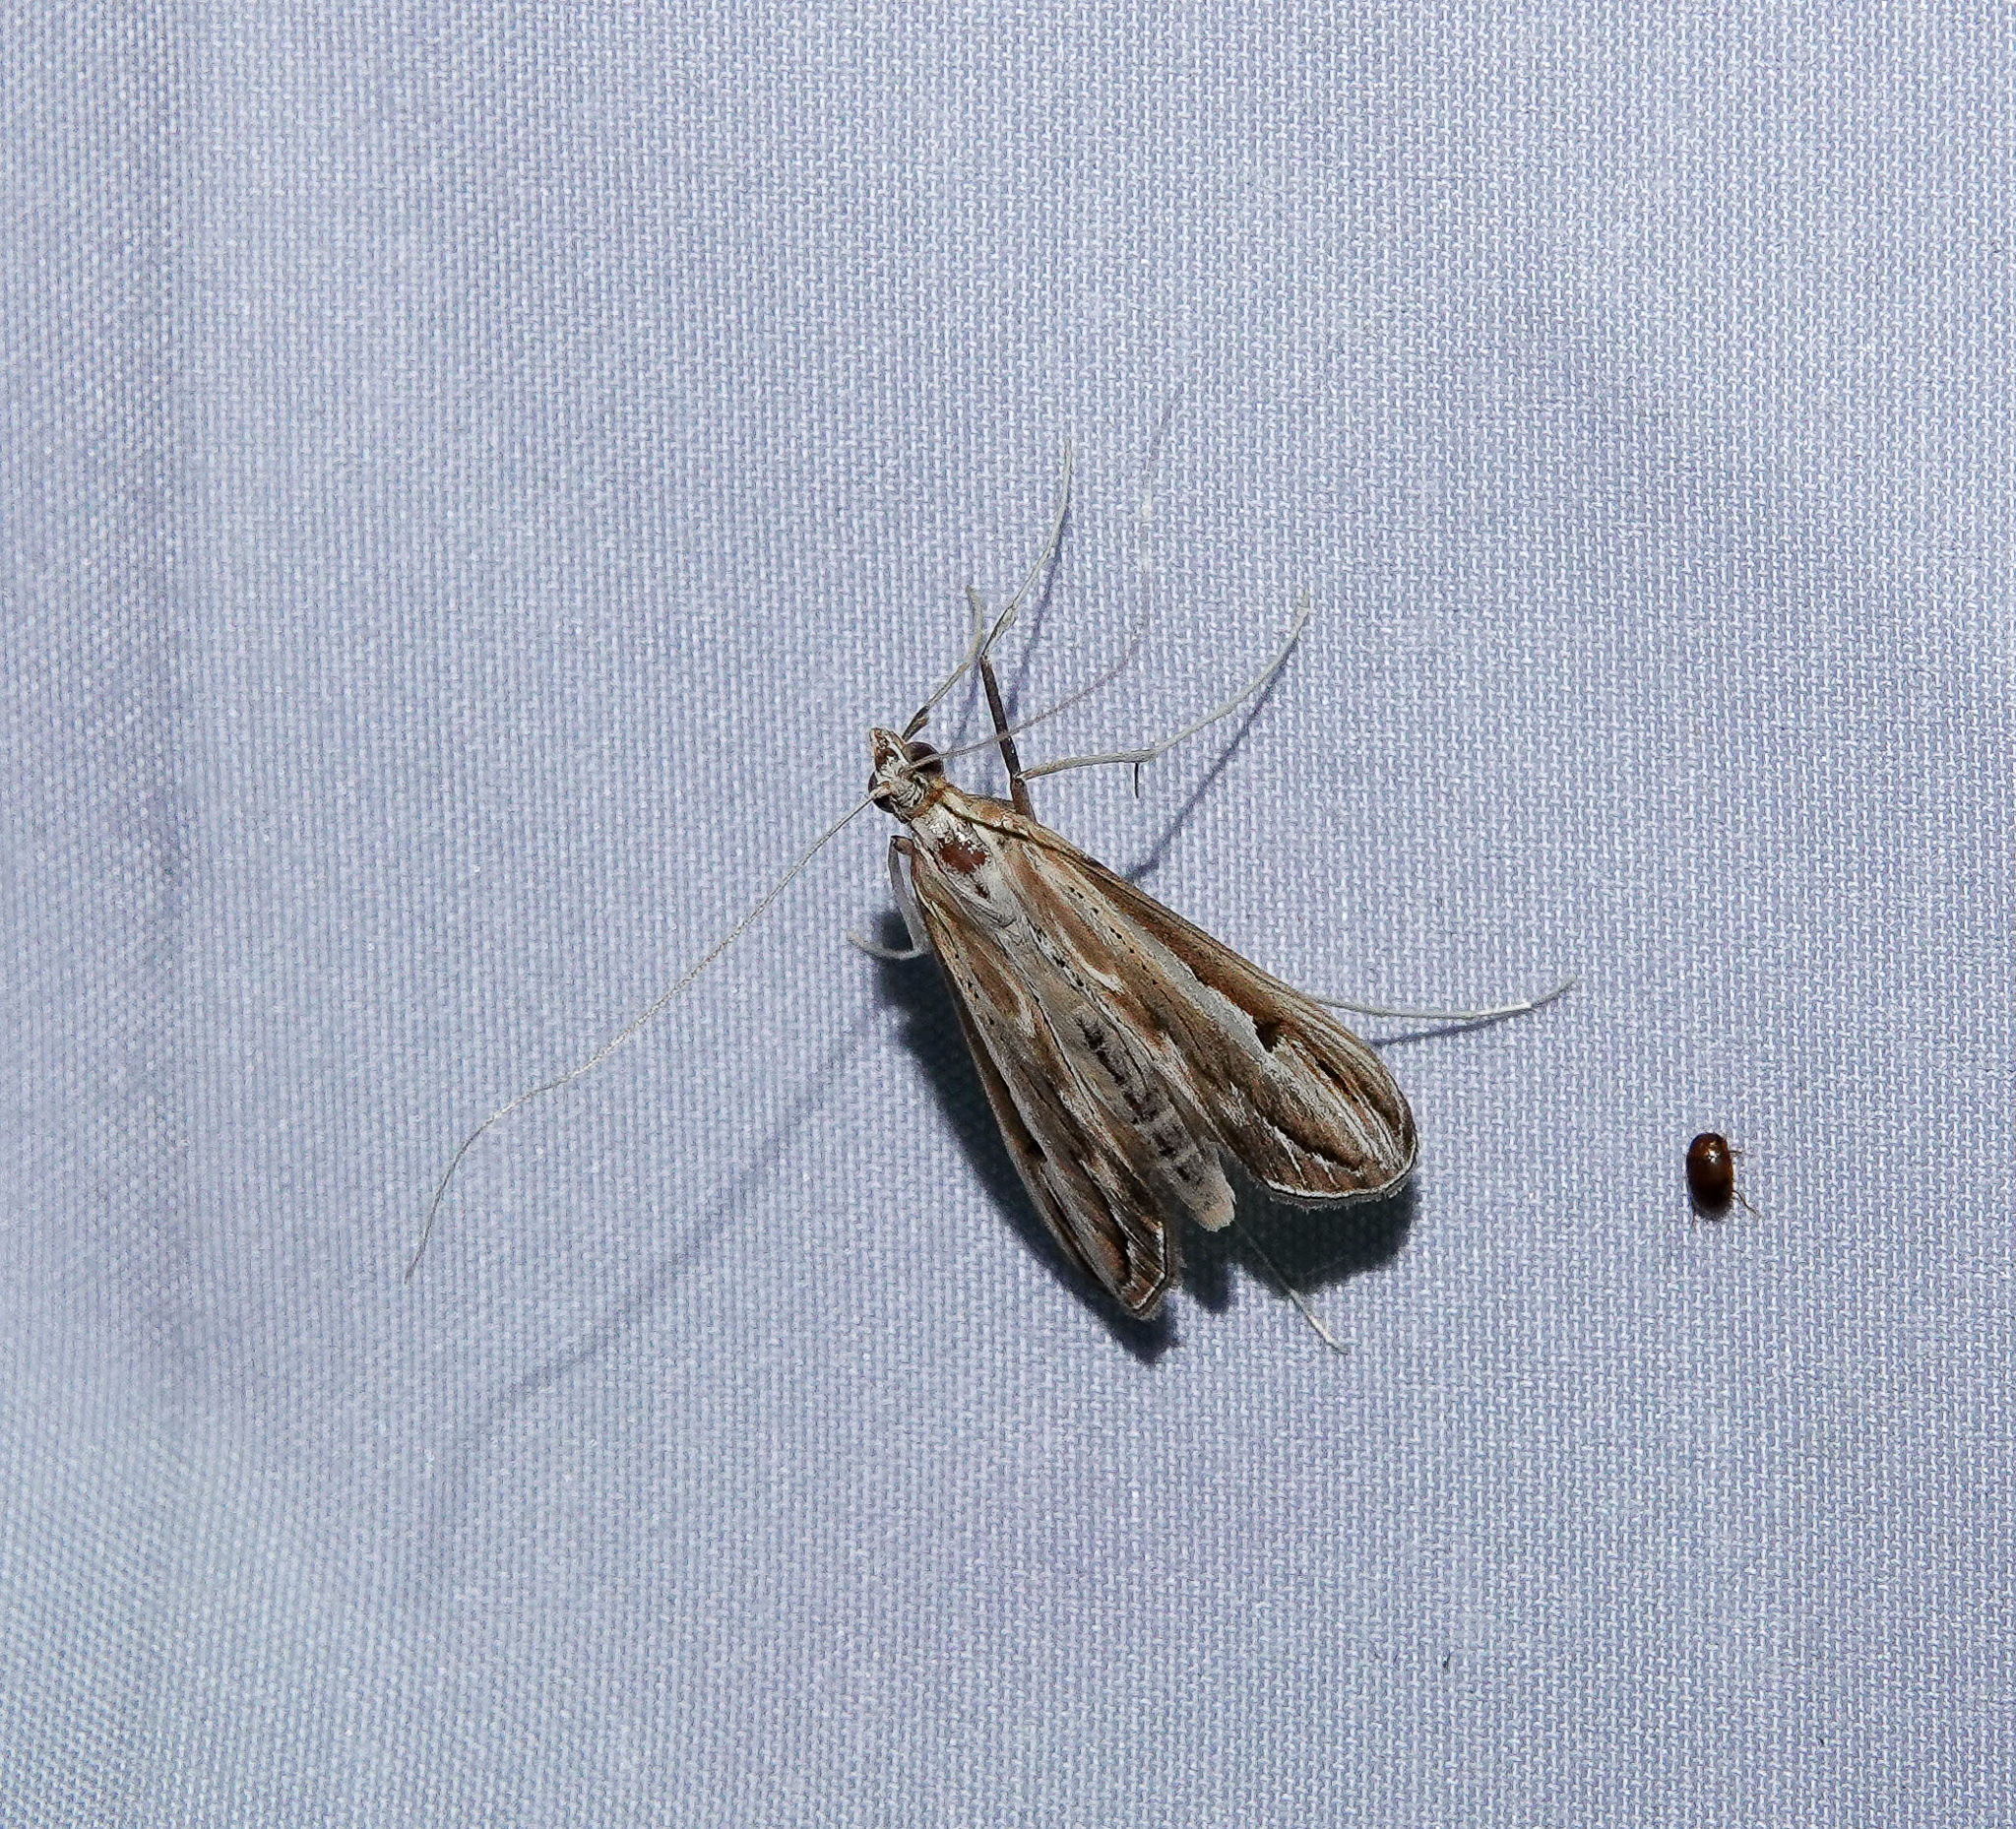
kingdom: Animalia
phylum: Arthropoda
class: Insecta
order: Lepidoptera
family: Crambidae
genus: Euclasta
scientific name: Euclasta
